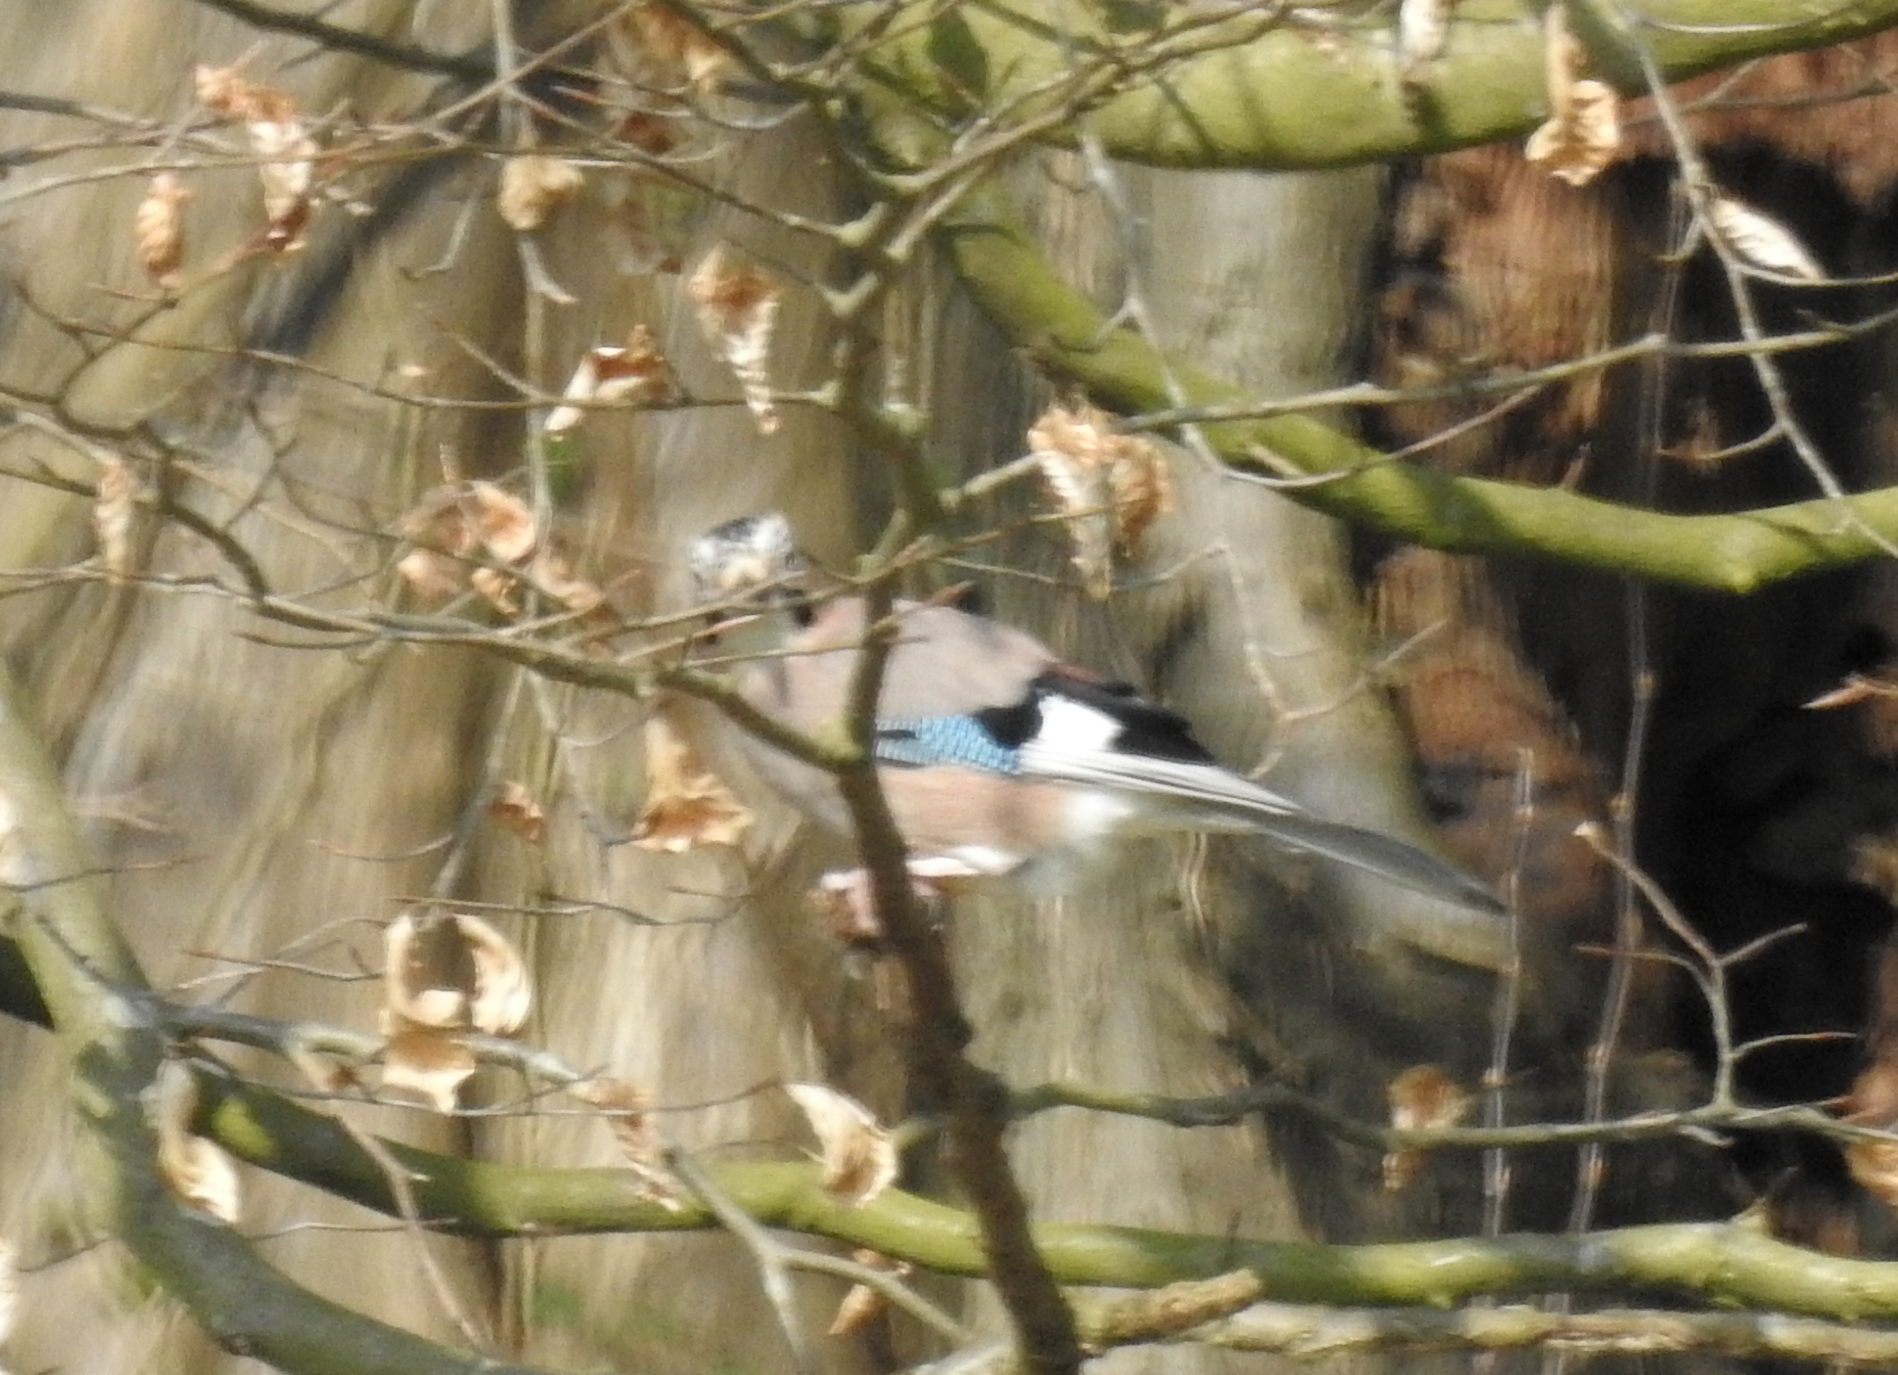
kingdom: Animalia
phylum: Chordata
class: Aves
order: Passeriformes
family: Corvidae
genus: Garrulus
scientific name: Garrulus glandarius
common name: Eurasian jay
